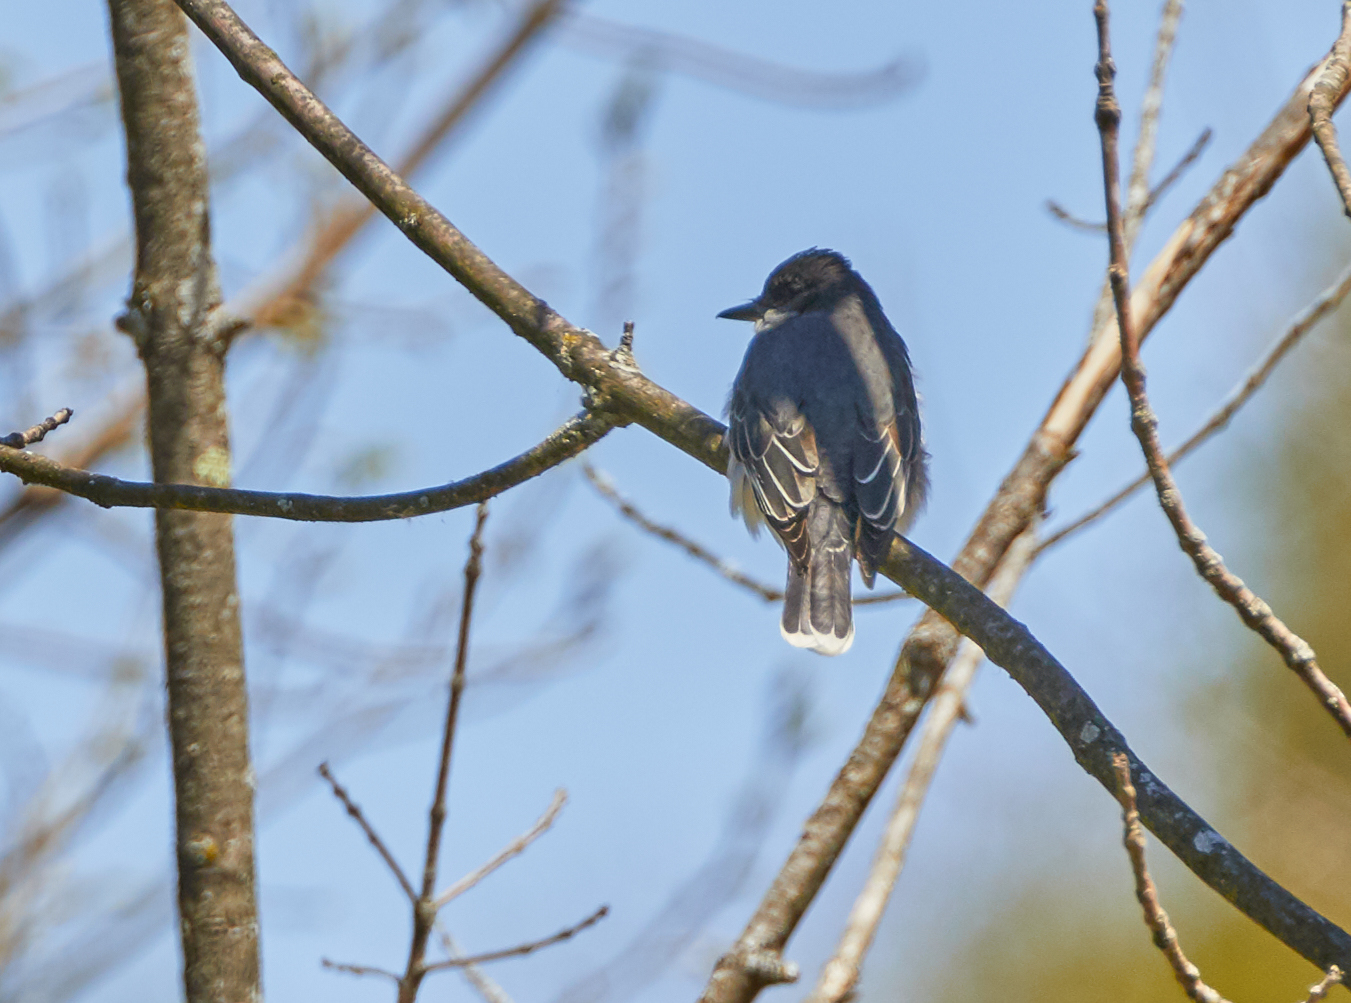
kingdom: Animalia
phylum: Chordata
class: Aves
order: Passeriformes
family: Tyrannidae
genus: Tyrannus
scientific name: Tyrannus tyrannus
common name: Eastern kingbird
